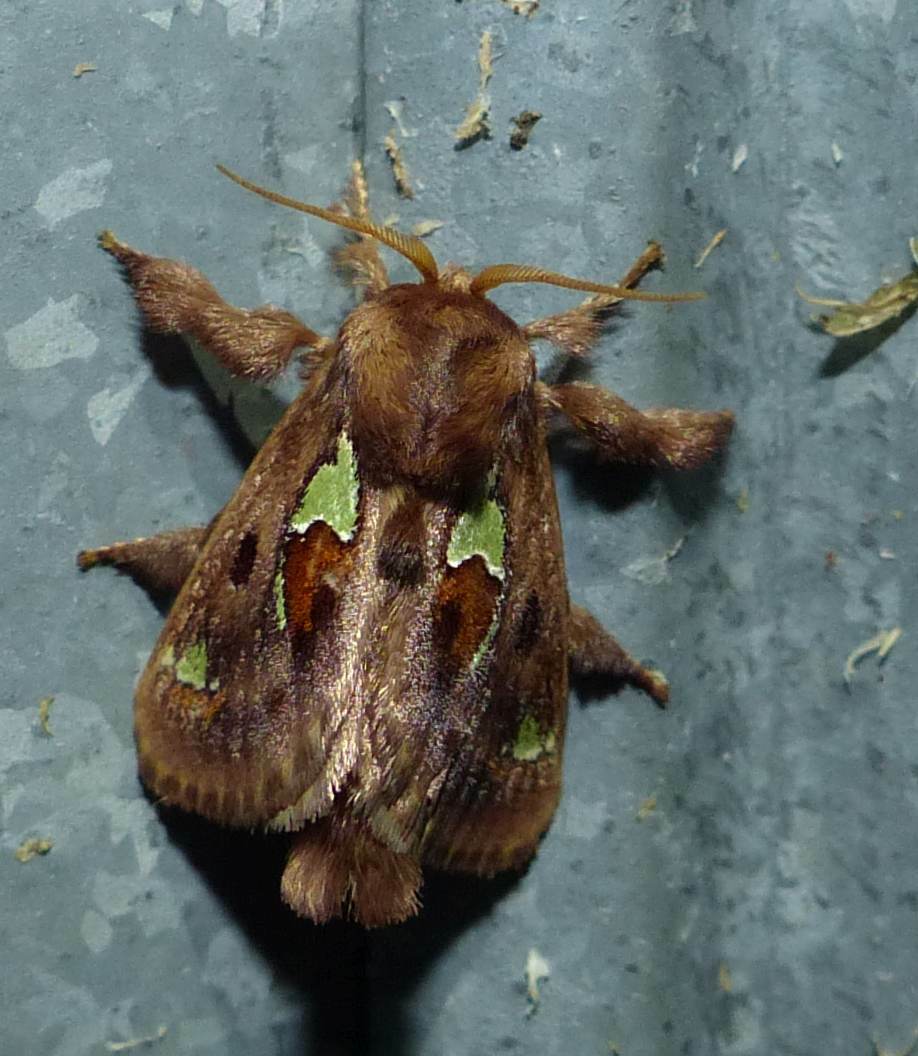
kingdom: Animalia
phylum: Arthropoda
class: Insecta
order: Lepidoptera
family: Limacodidae
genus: Euclea
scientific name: Euclea delphinii
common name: Spiny oak-slug moth
